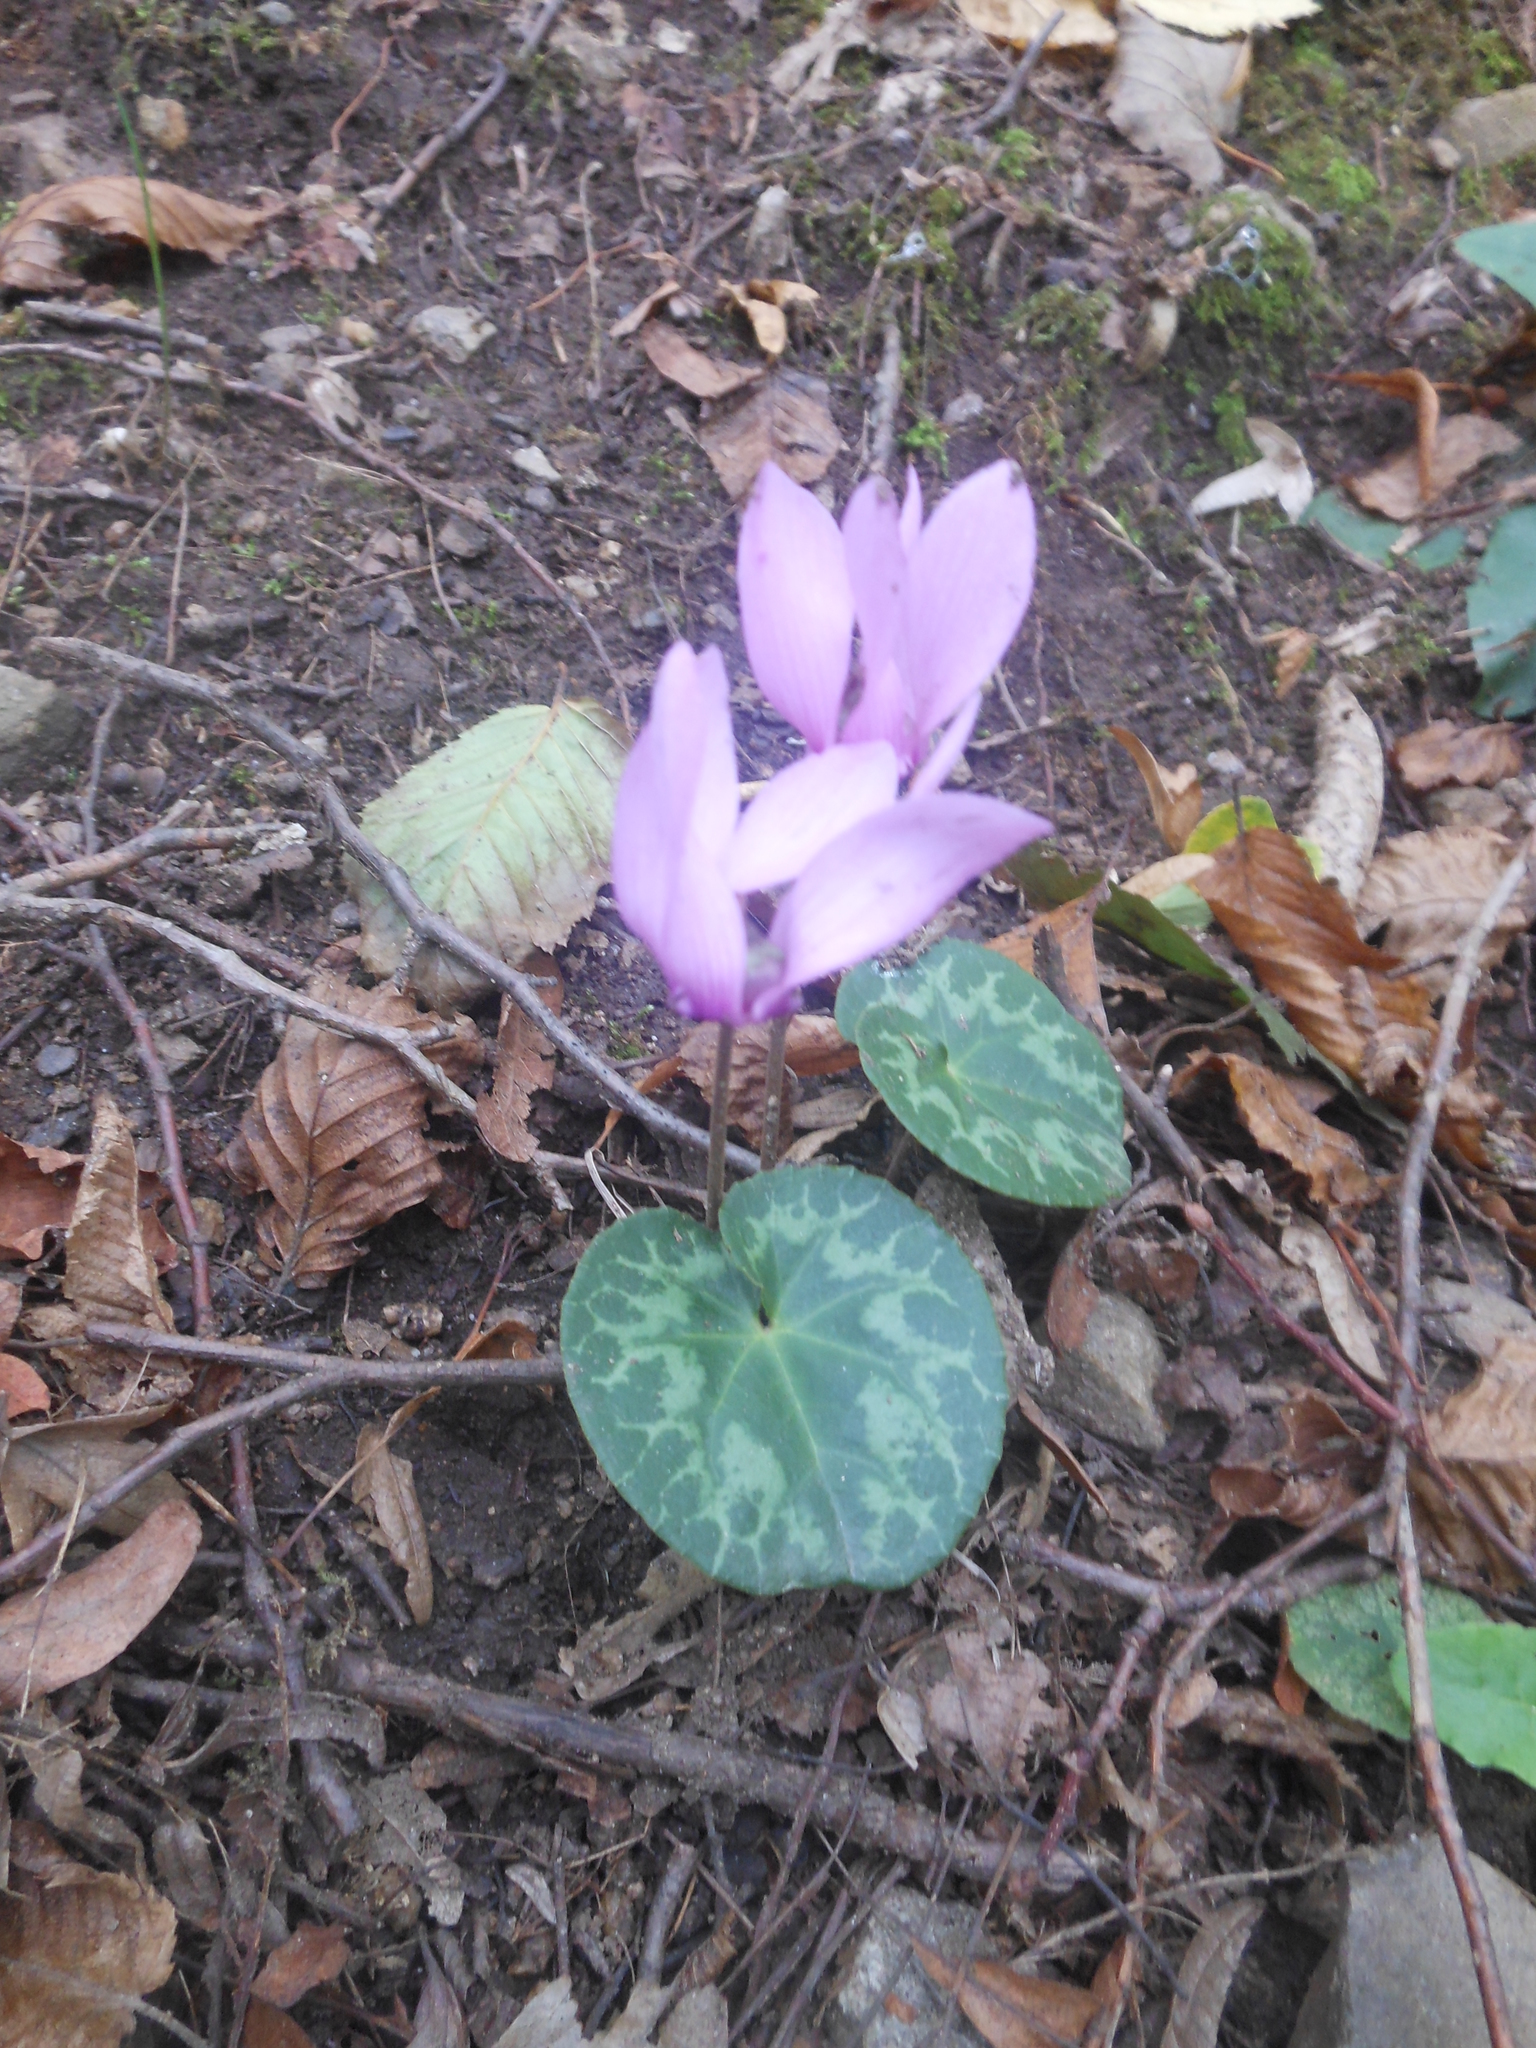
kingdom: Plantae
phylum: Tracheophyta
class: Magnoliopsida
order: Ericales
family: Primulaceae
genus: Cyclamen
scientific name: Cyclamen purpurascens
